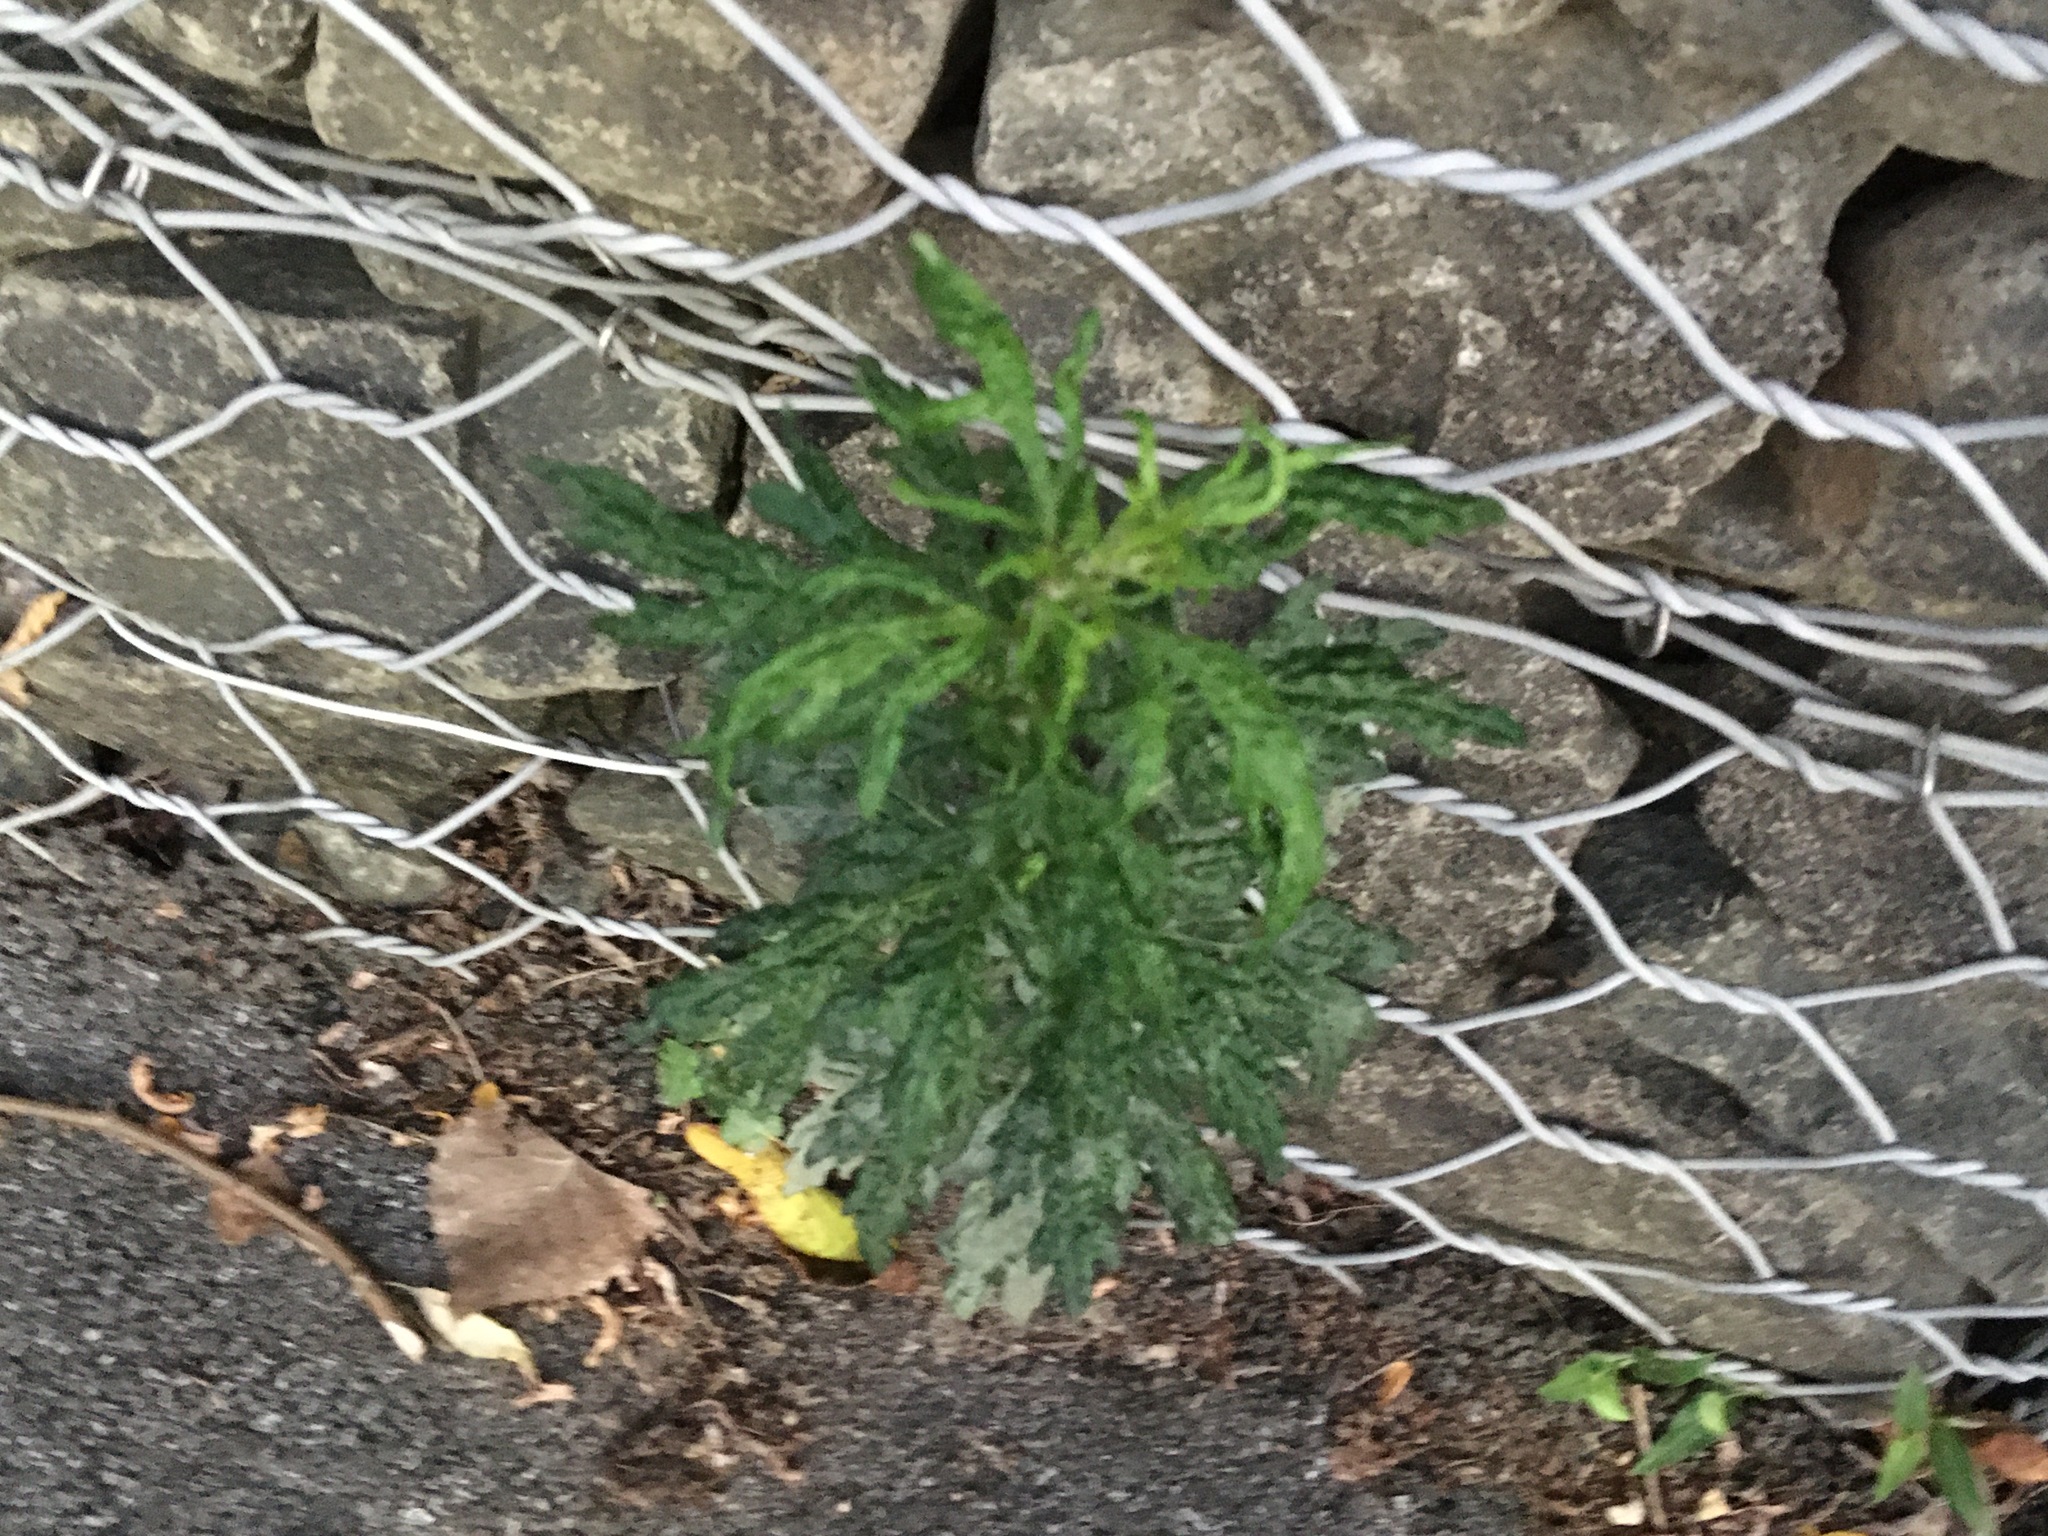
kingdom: Plantae
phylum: Tracheophyta
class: Magnoliopsida
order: Asterales
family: Asteraceae
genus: Artemisia
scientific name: Artemisia vulgaris
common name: Mugwort
